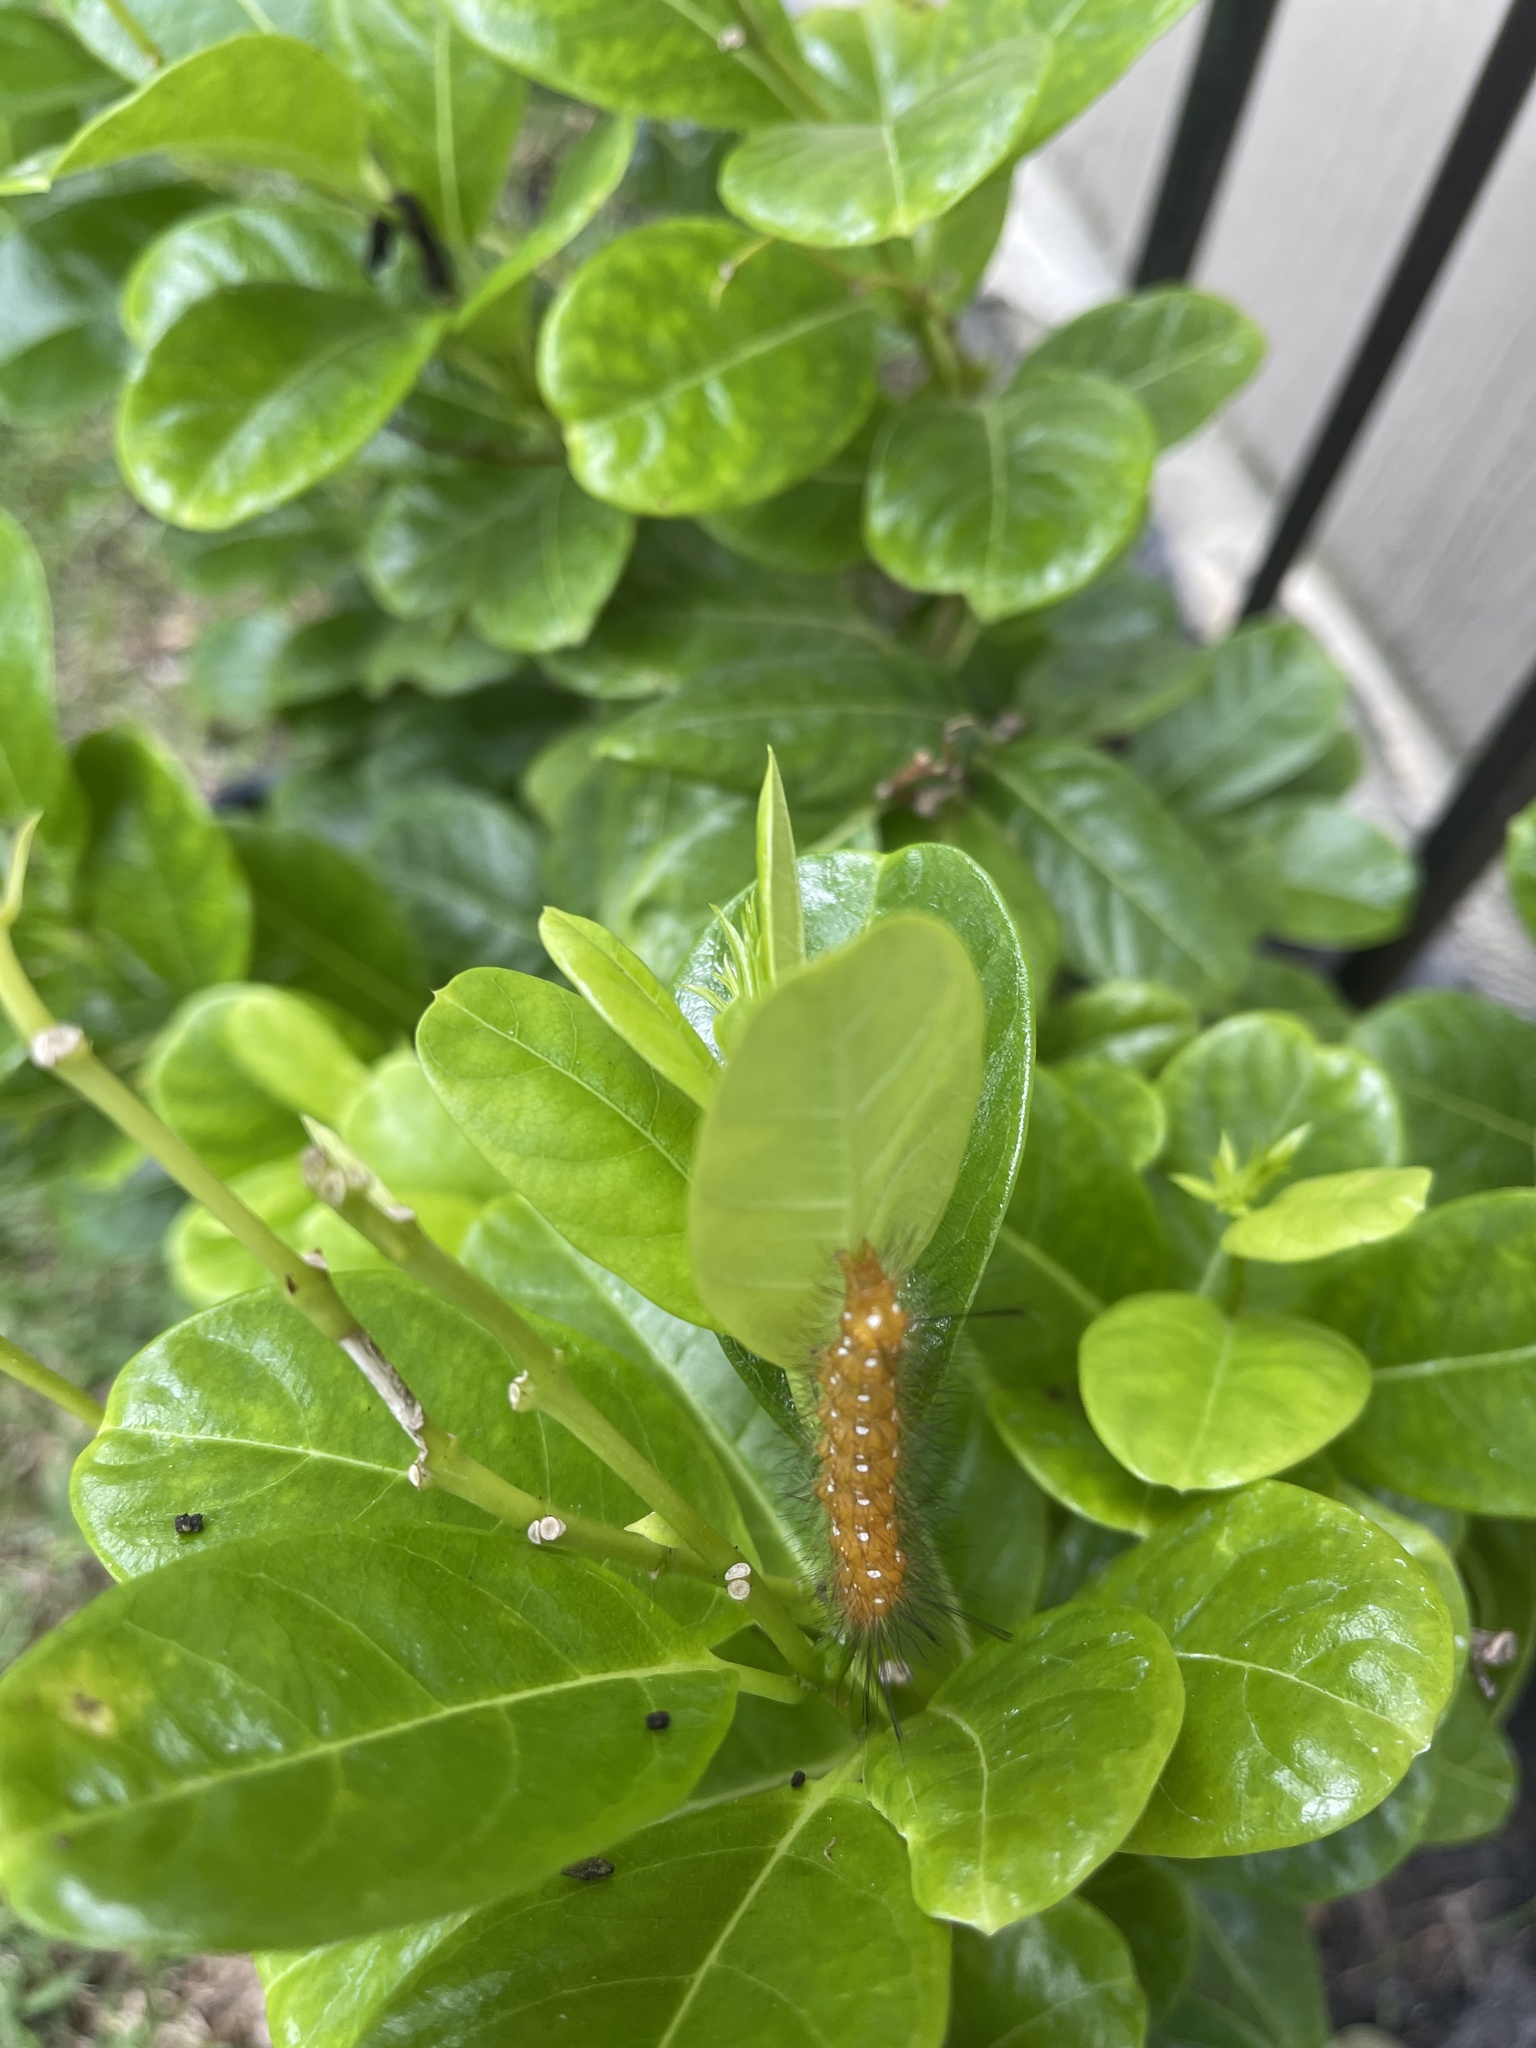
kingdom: Animalia
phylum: Arthropoda
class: Insecta
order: Lepidoptera
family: Erebidae
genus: Empyreuma
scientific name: Empyreuma pugione
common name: Spotted oleander caterpillar moth
